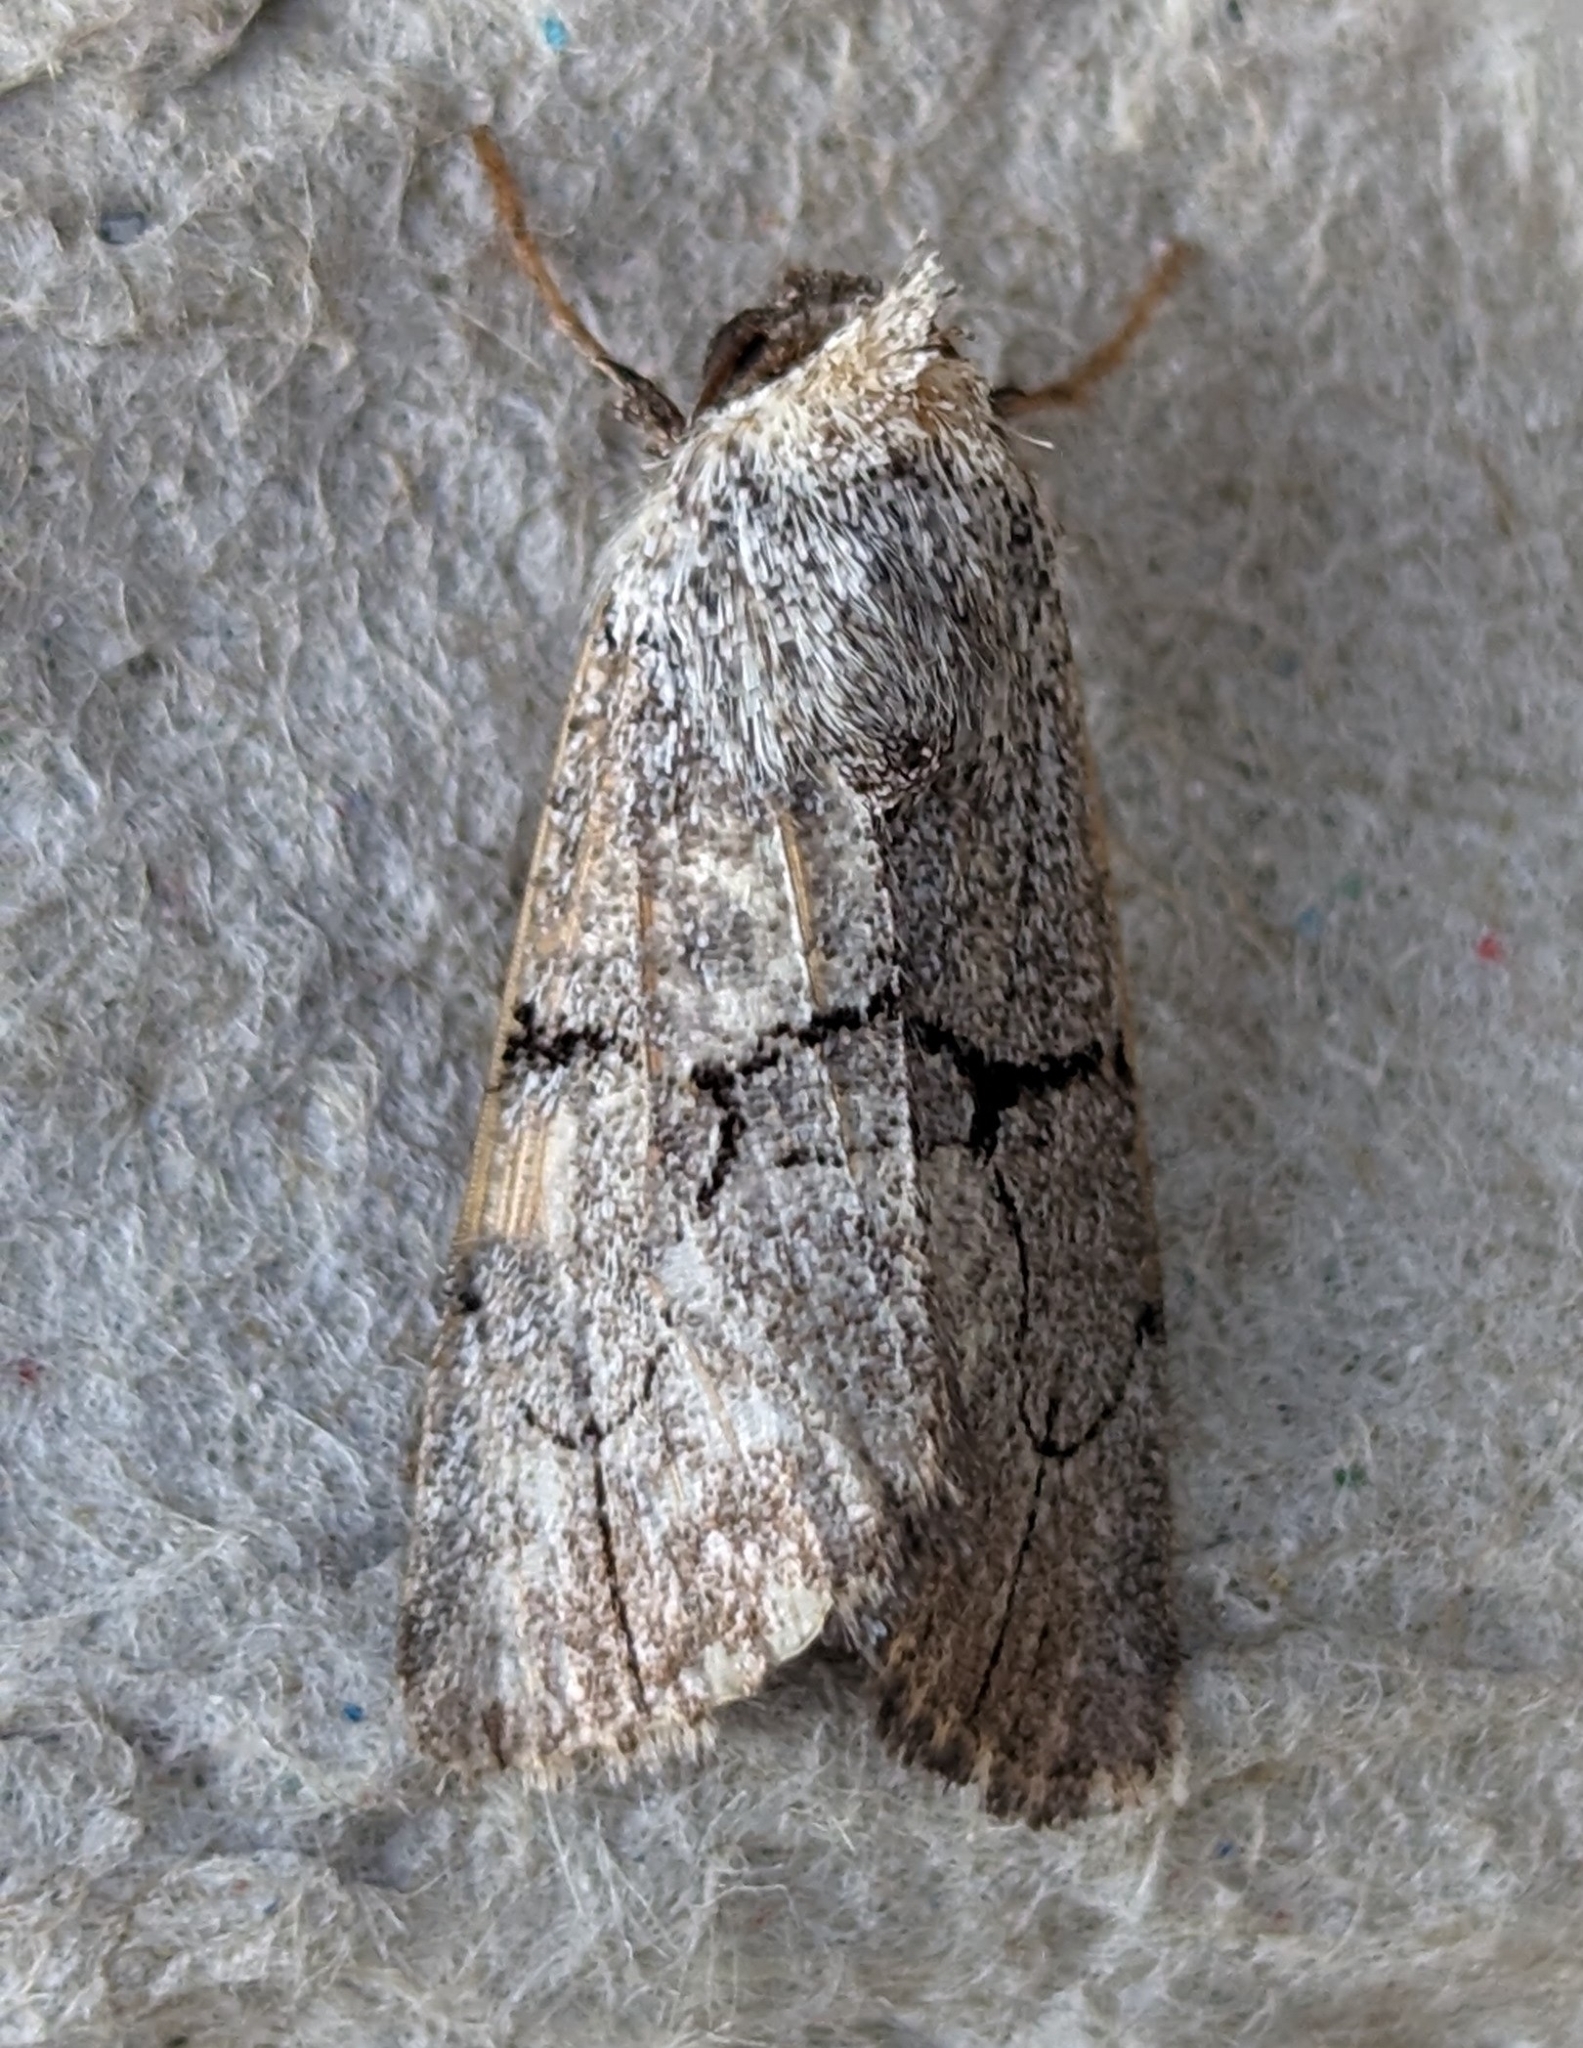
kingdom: Animalia
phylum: Arthropoda
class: Insecta
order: Lepidoptera
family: Noctuidae
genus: Sympistis
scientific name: Sympistis greyi
